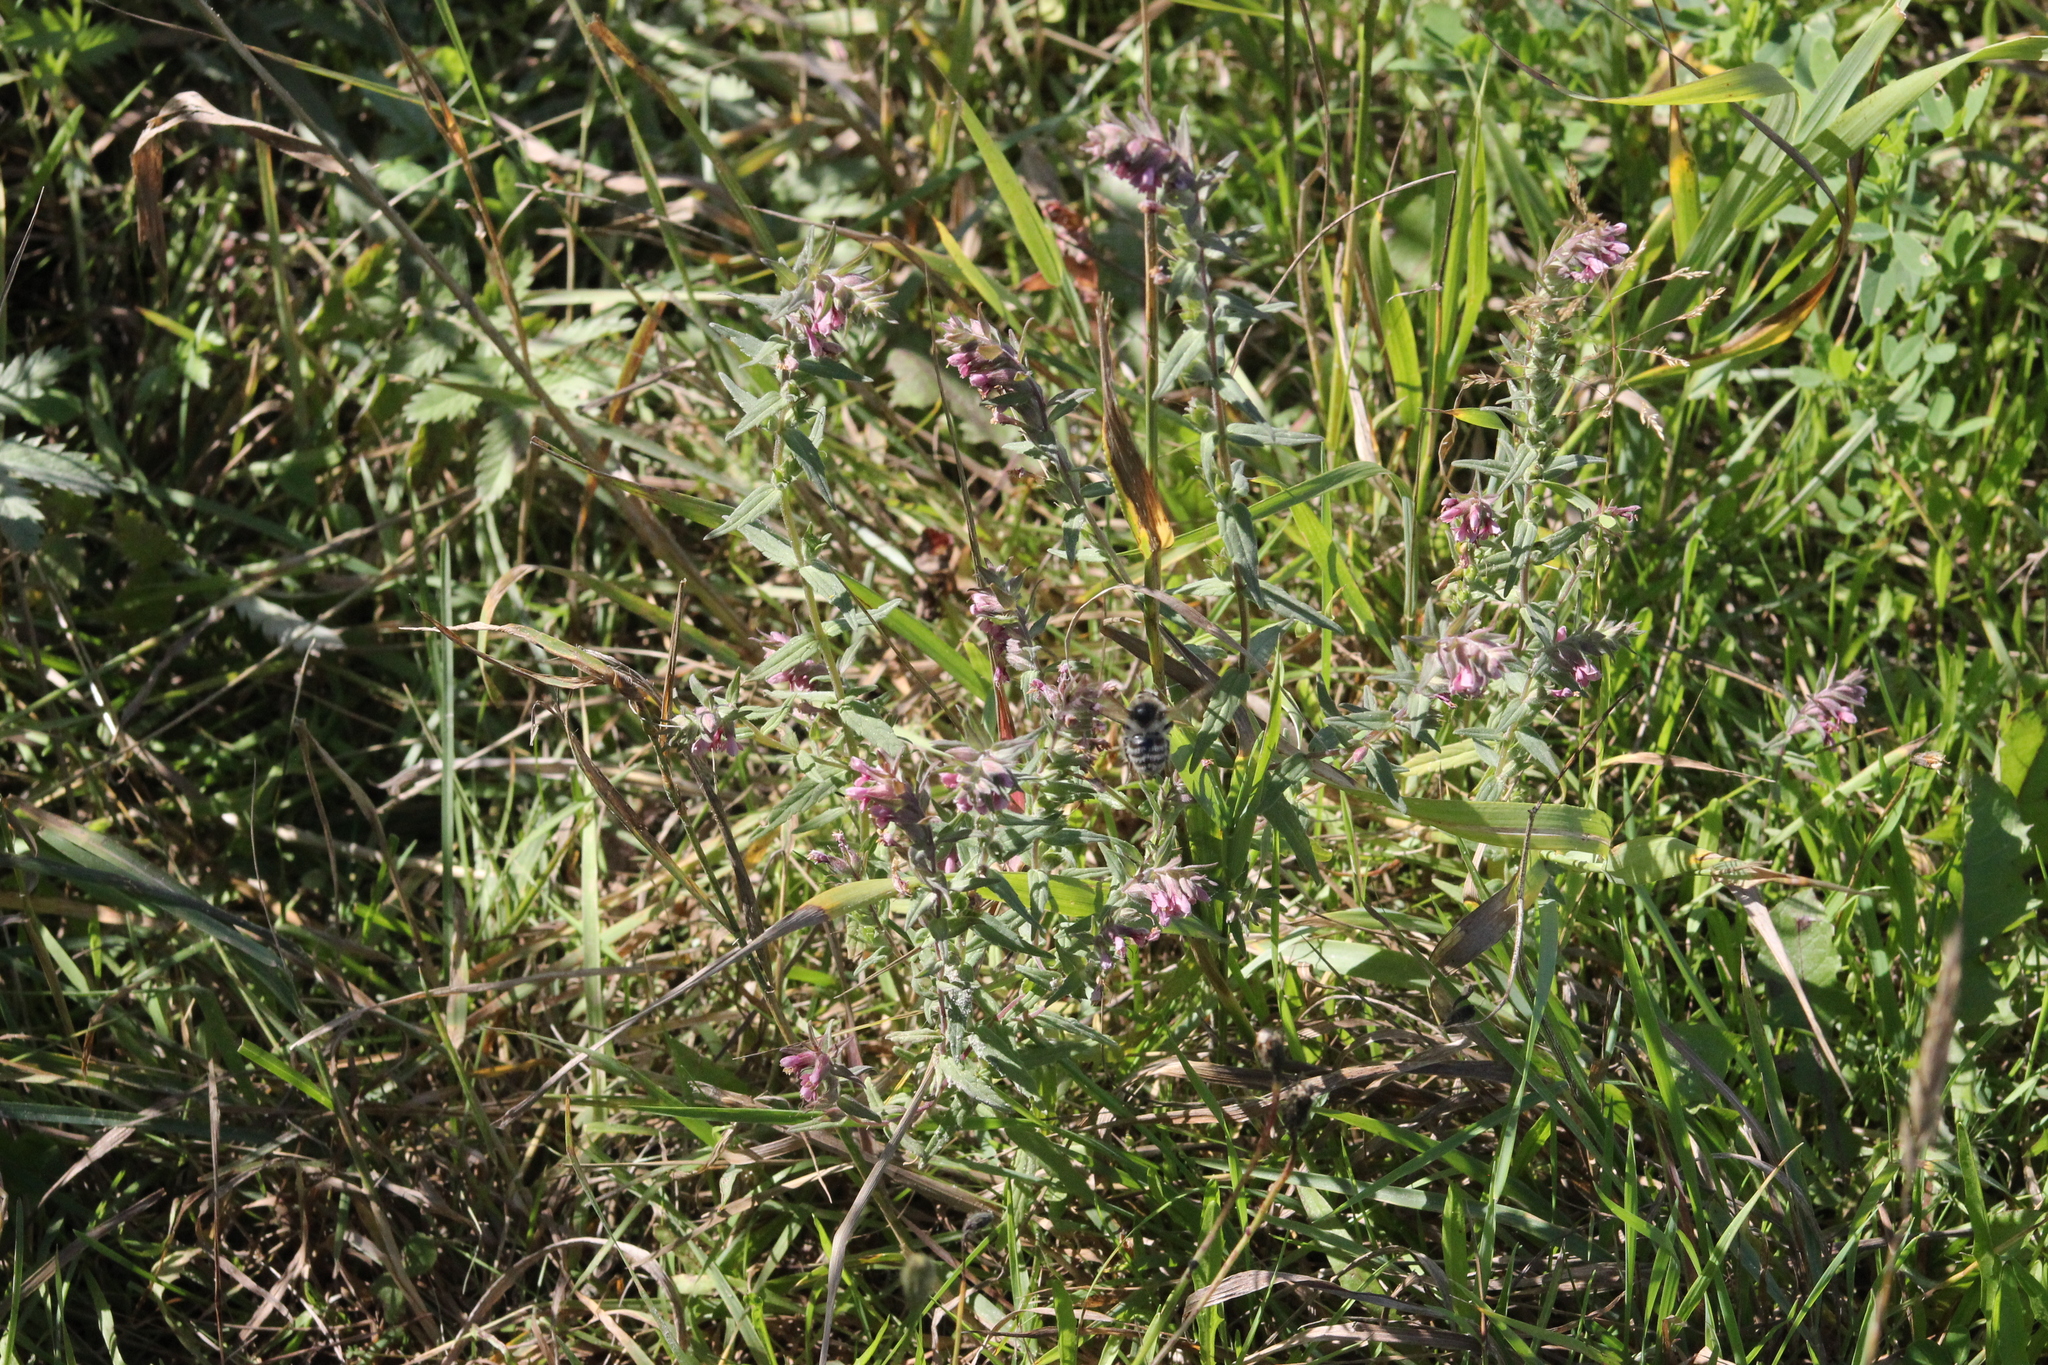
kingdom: Plantae
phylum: Tracheophyta
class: Magnoliopsida
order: Lamiales
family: Orobanchaceae
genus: Odontites
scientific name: Odontites vulgaris
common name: Broomrape
